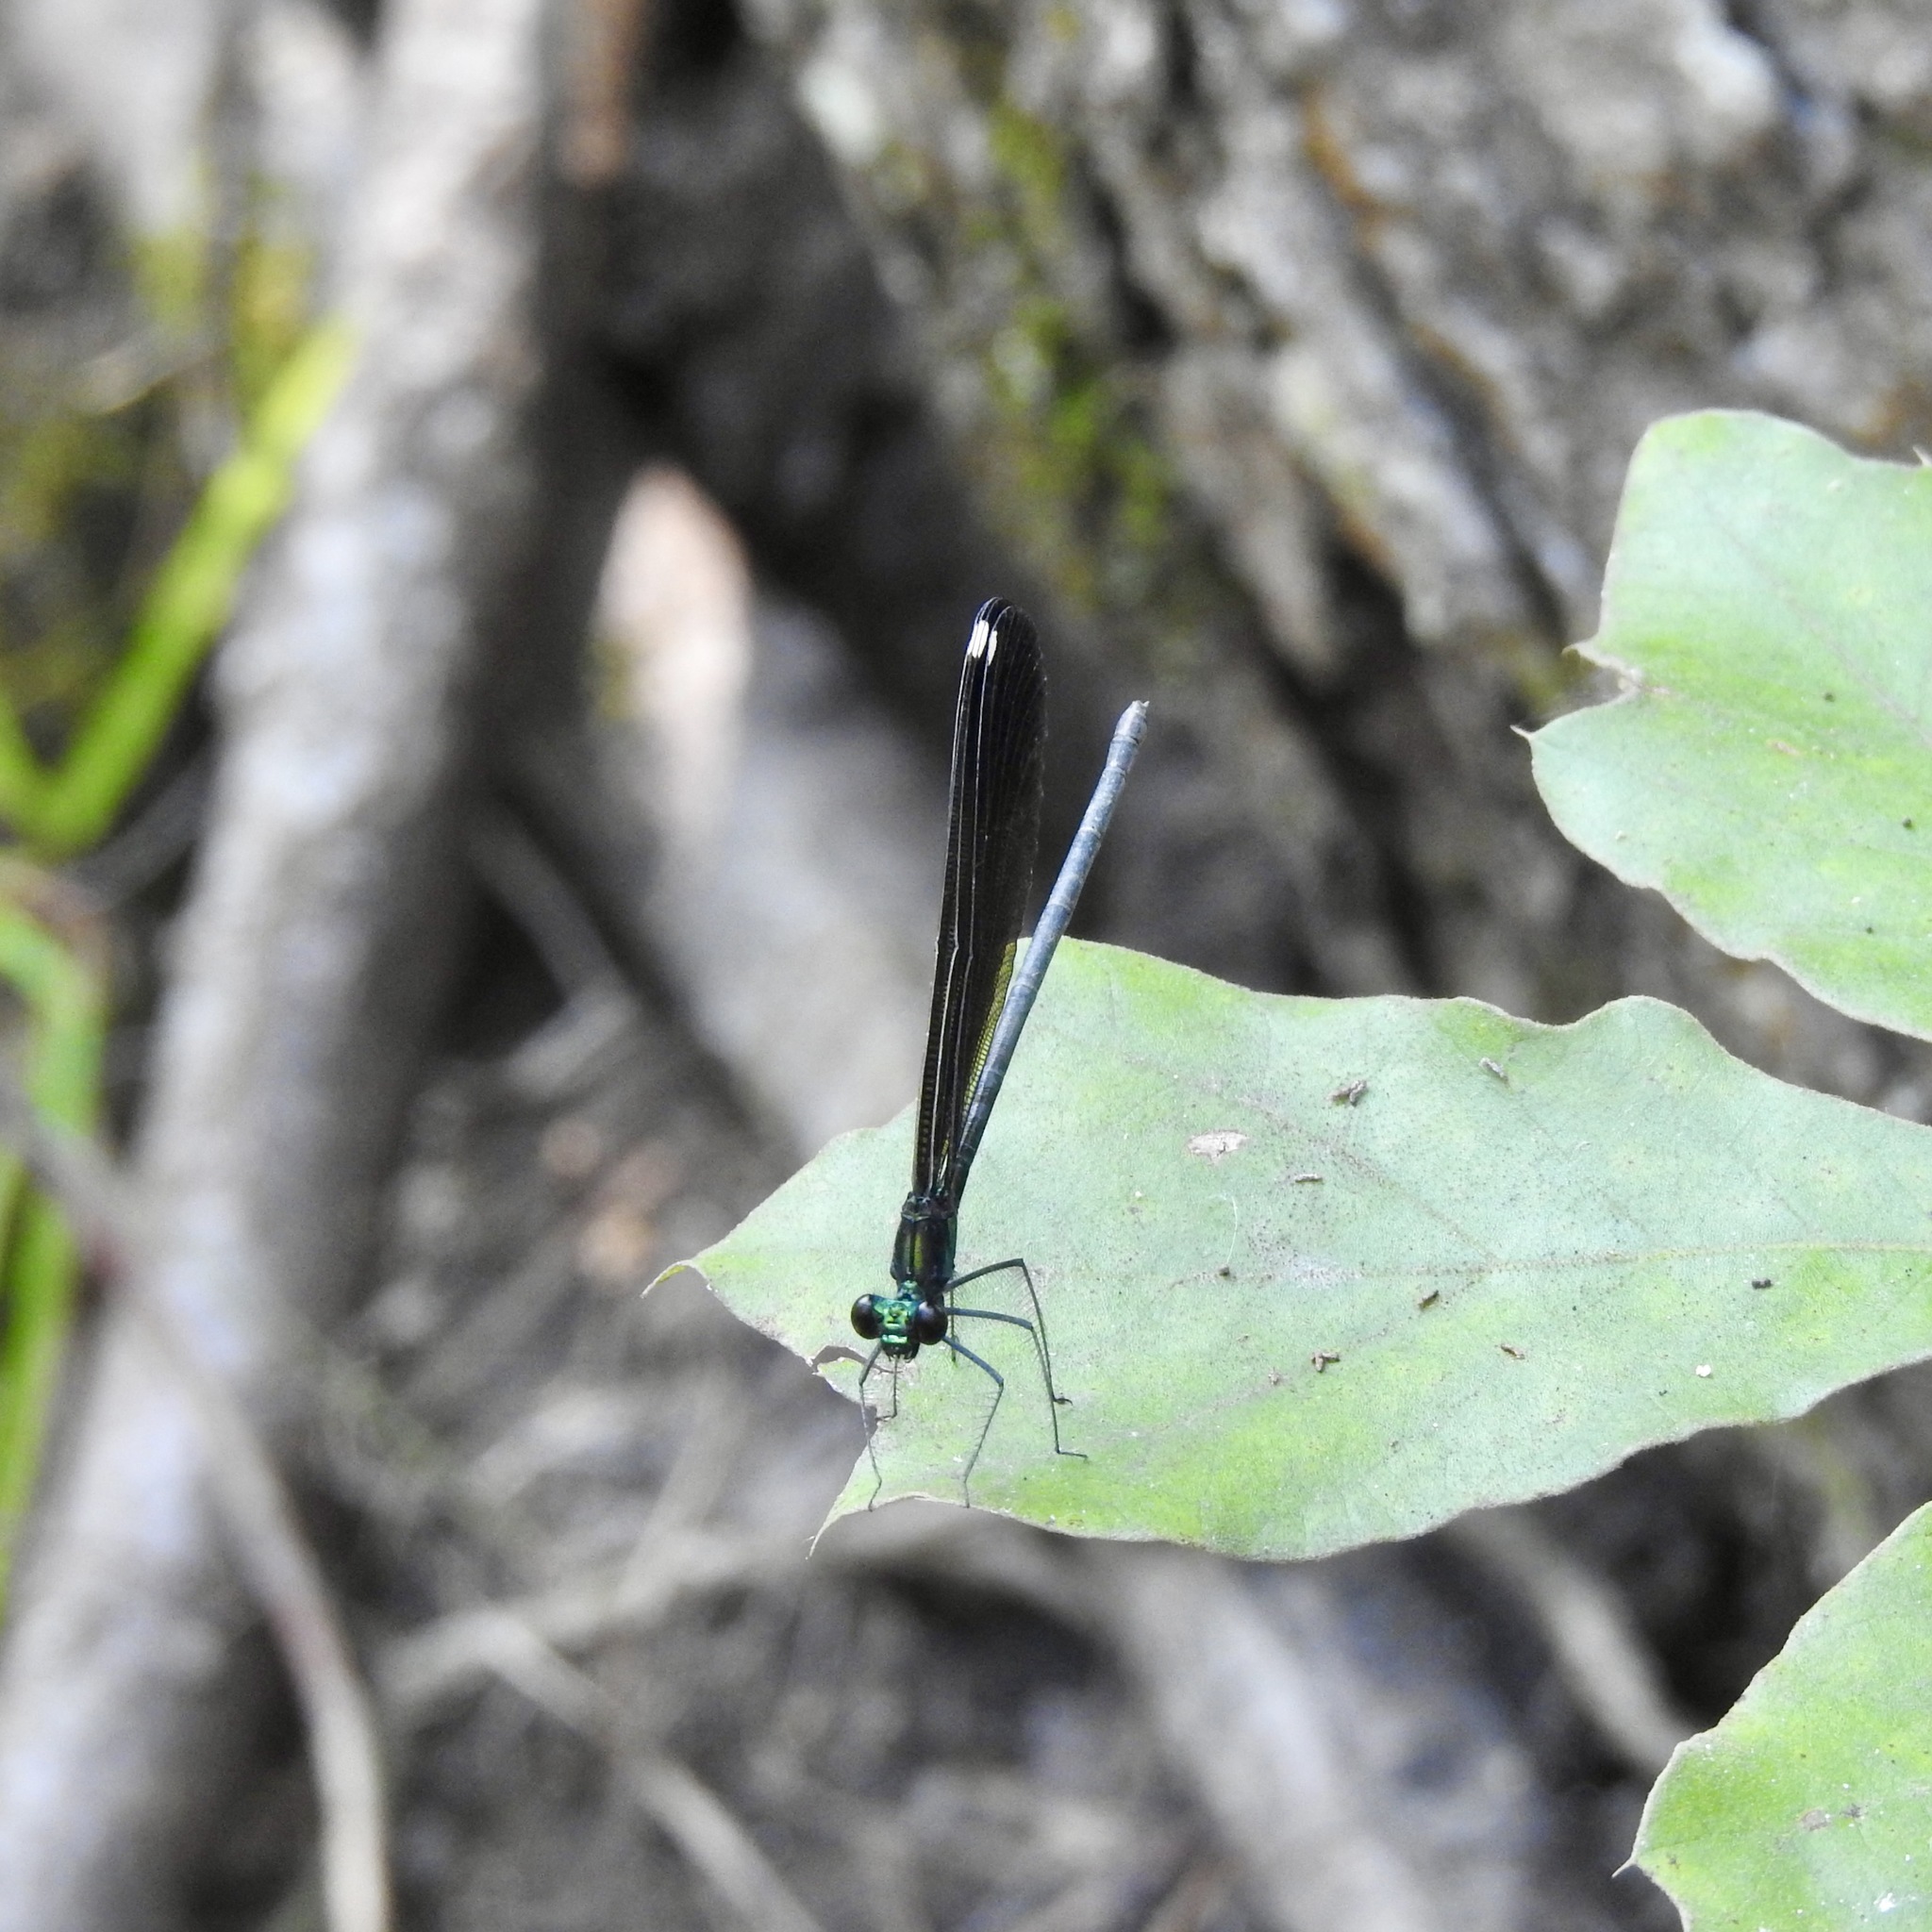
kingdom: Animalia
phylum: Arthropoda
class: Insecta
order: Odonata
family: Calopterygidae
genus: Calopteryx
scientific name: Calopteryx maculata
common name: Ebony jewelwing
